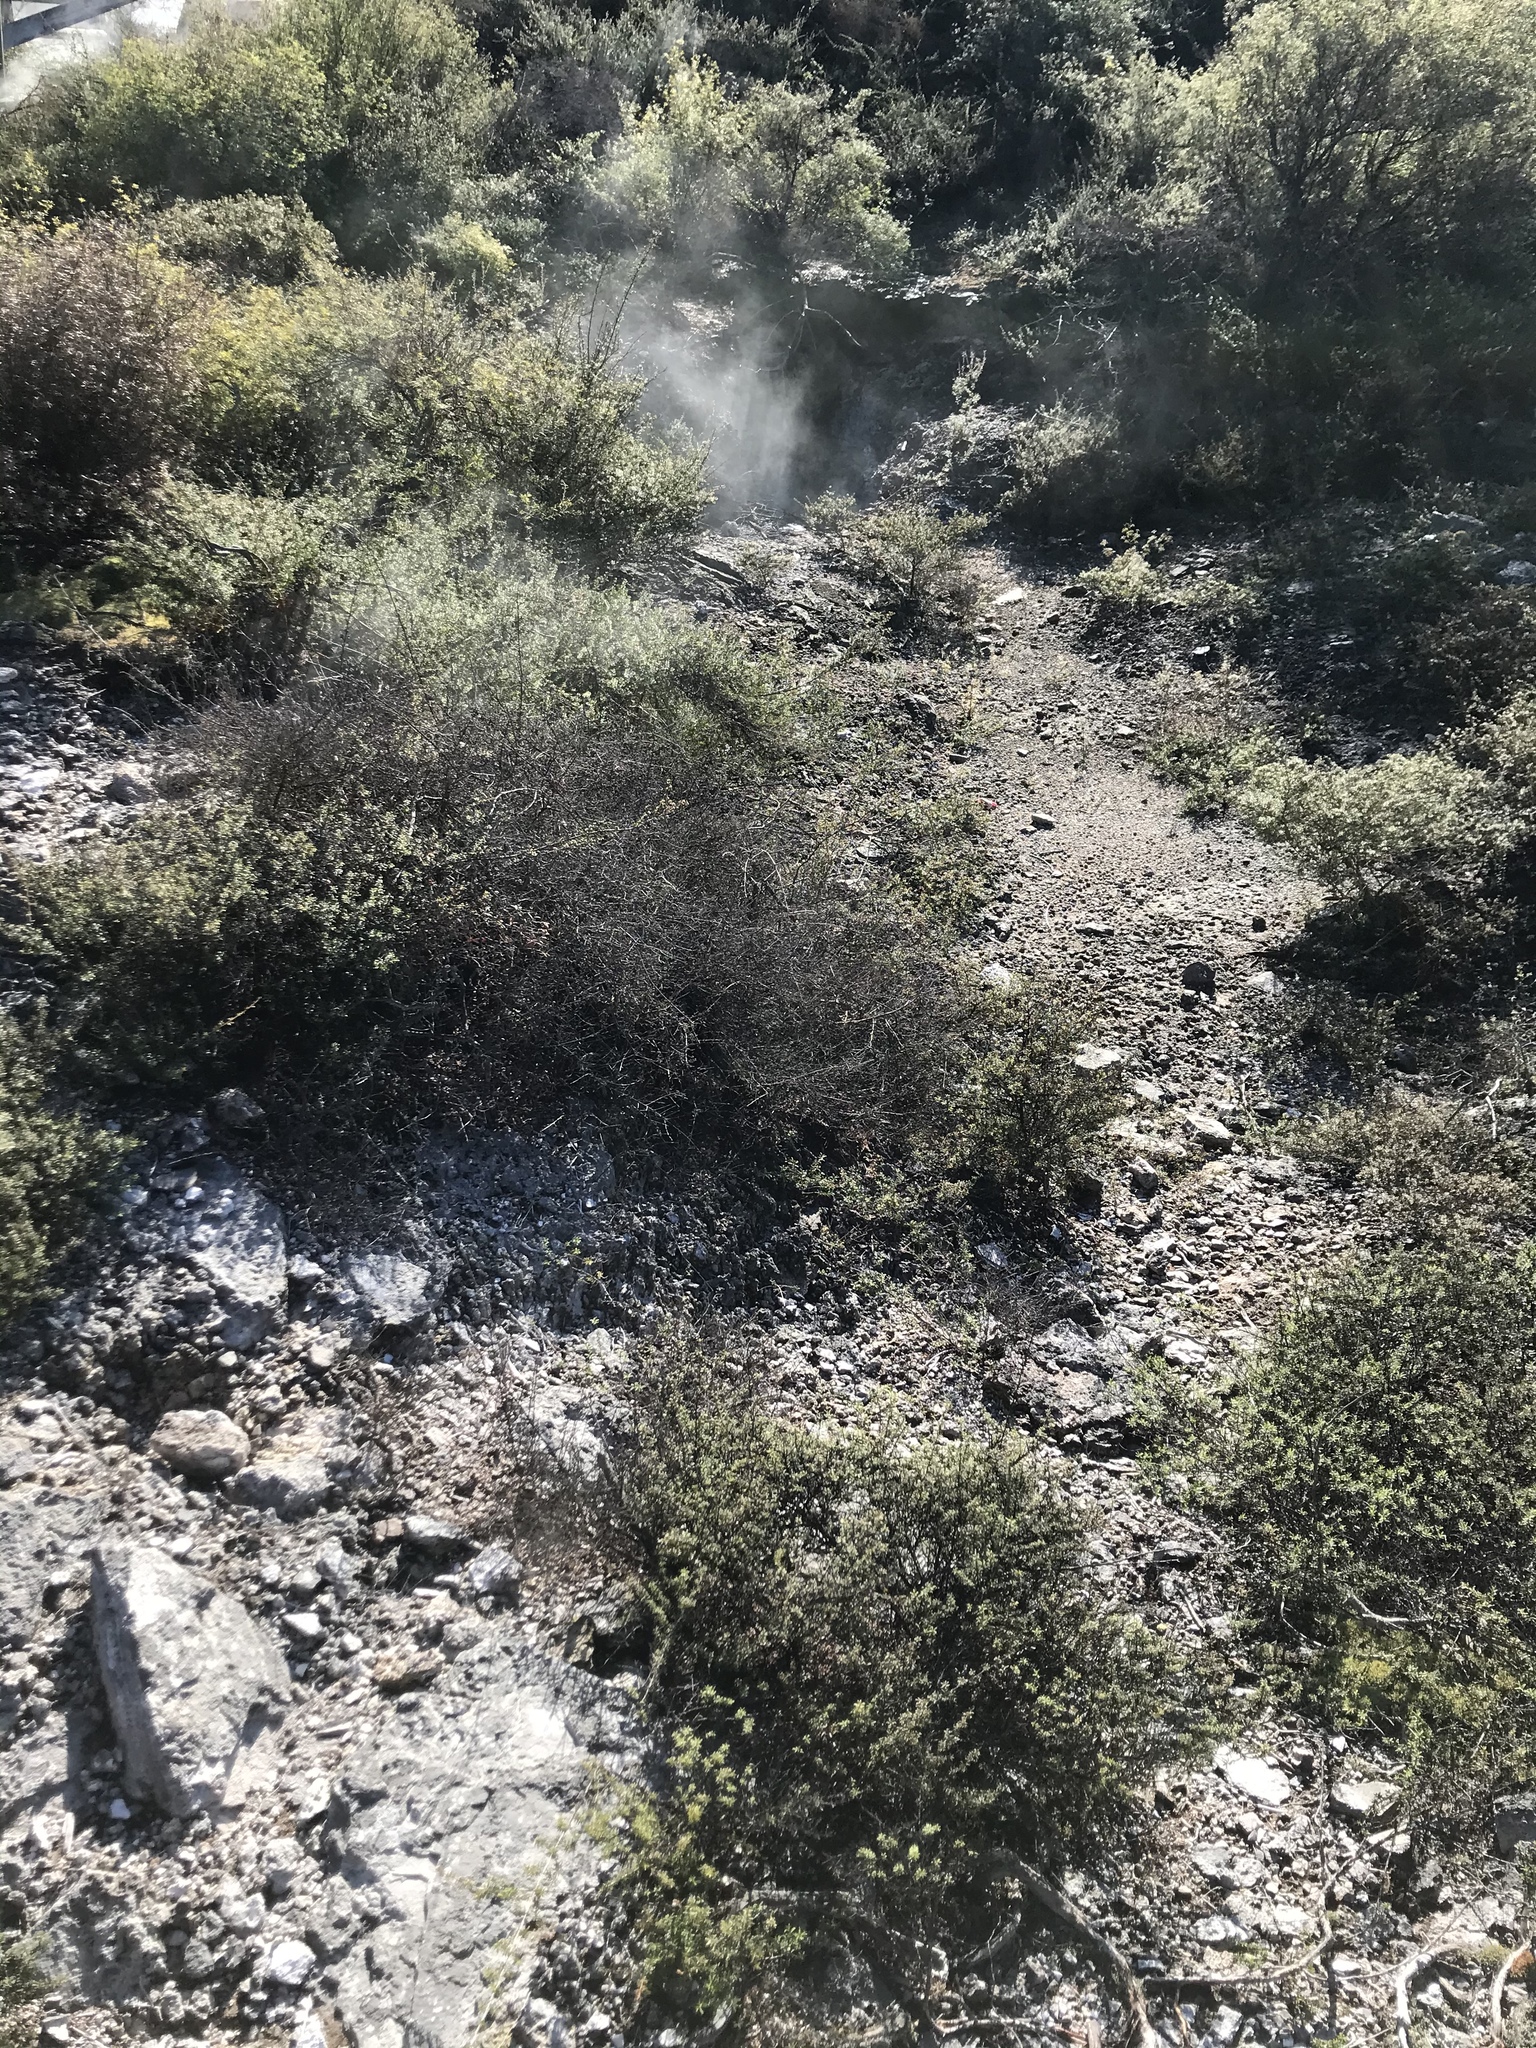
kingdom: Plantae
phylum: Tracheophyta
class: Magnoliopsida
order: Myrtales
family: Myrtaceae
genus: Kunzea
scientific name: Kunzea tenuicaulis
